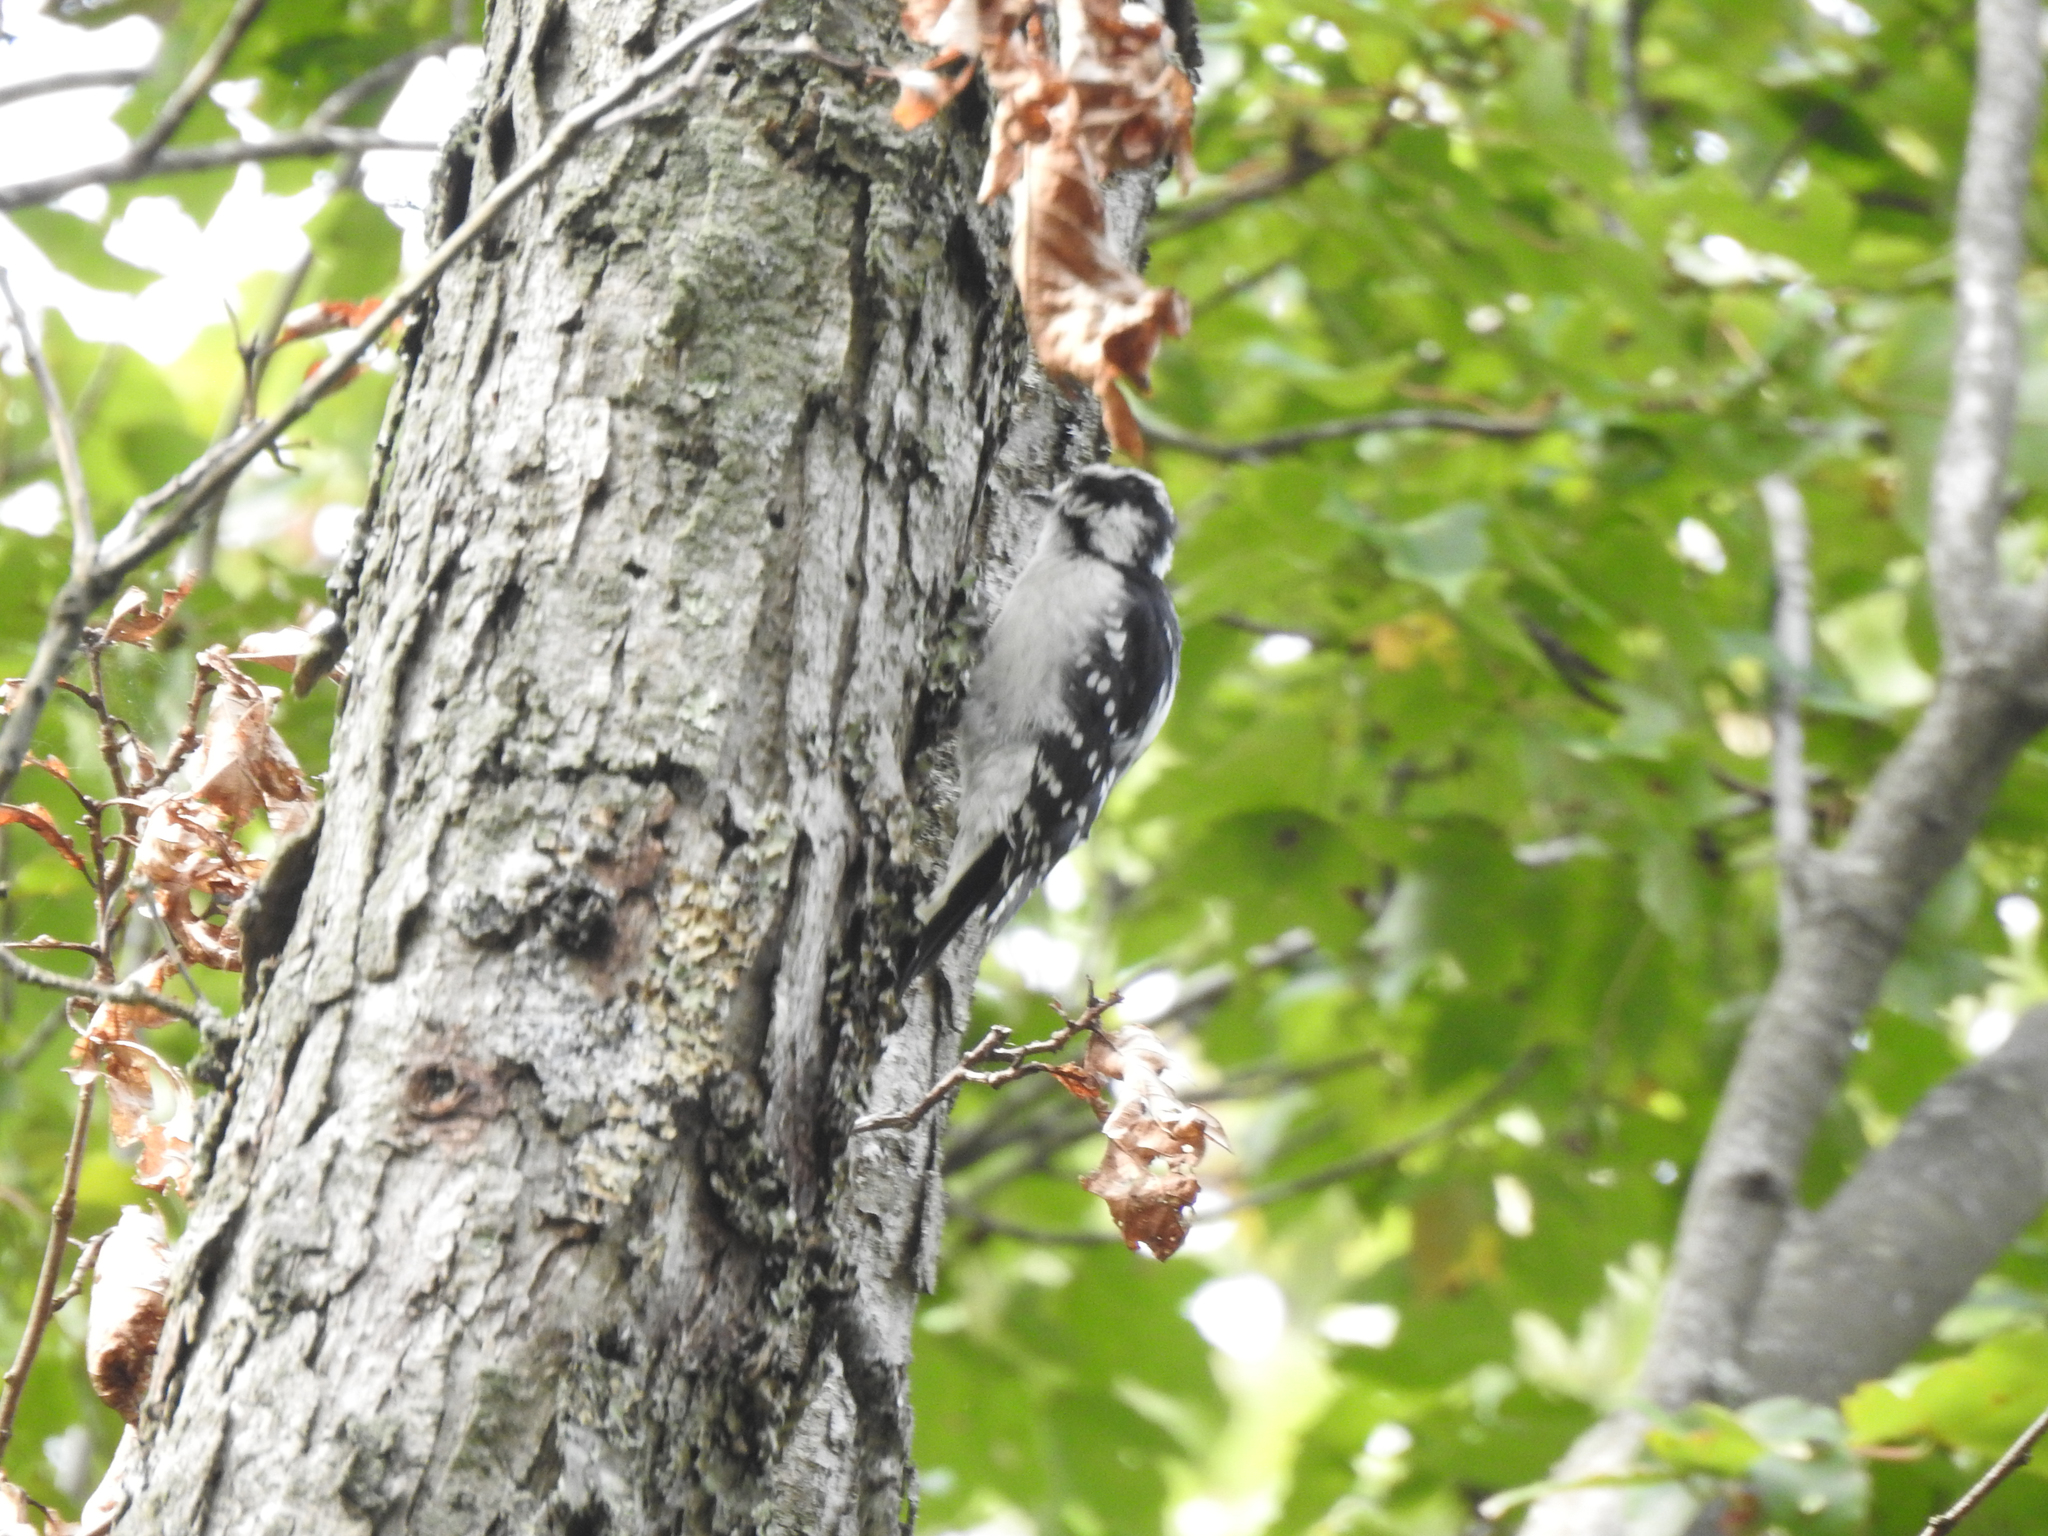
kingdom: Animalia
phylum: Chordata
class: Aves
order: Piciformes
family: Picidae
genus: Dryobates
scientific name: Dryobates pubescens
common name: Downy woodpecker
